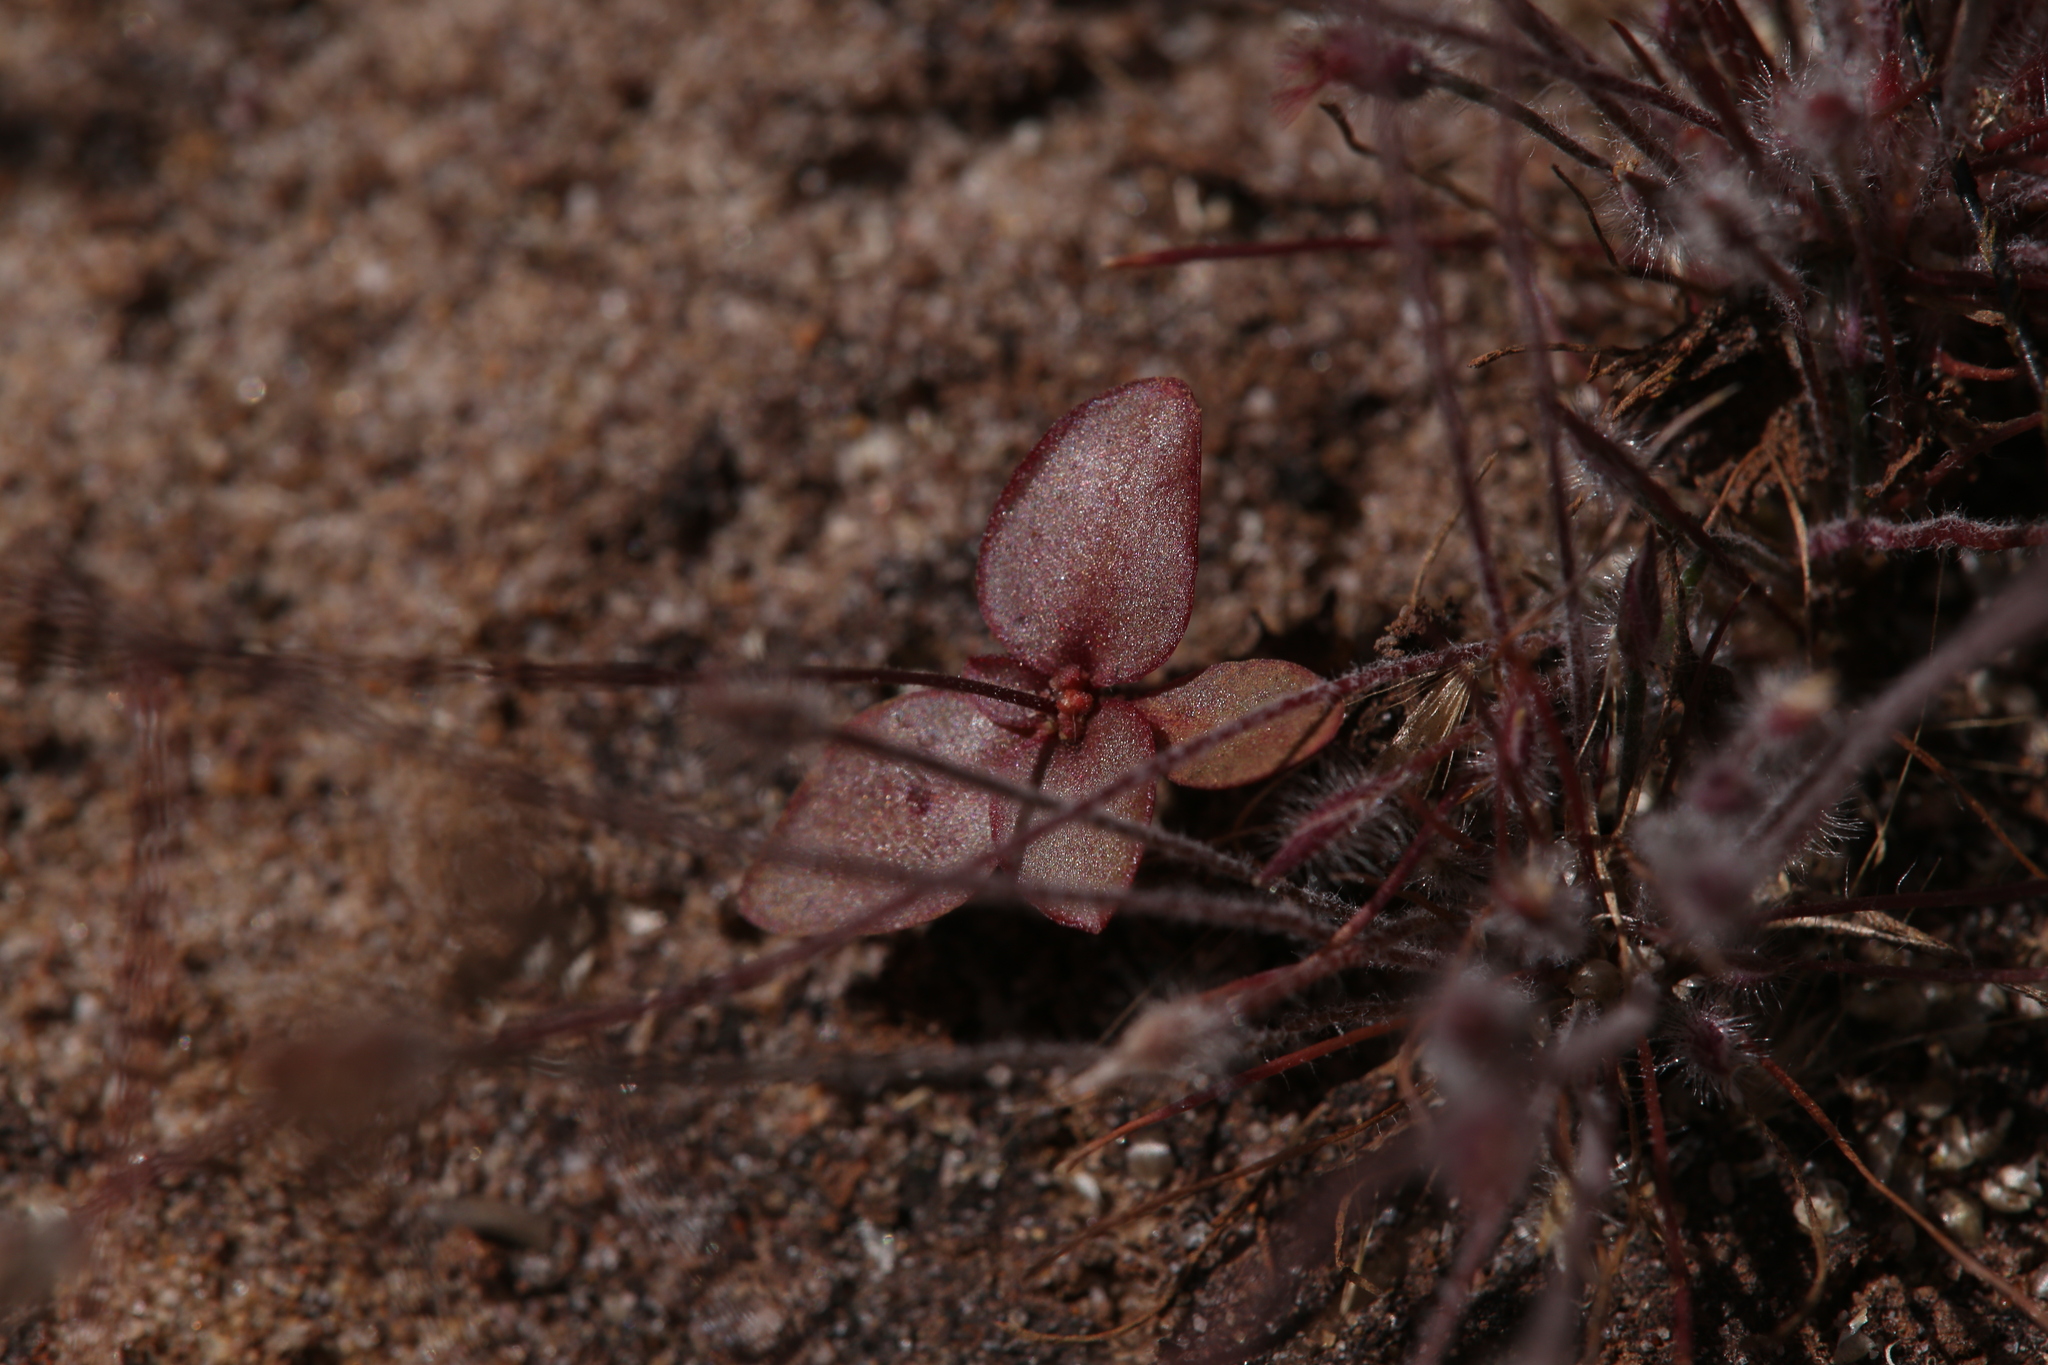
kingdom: Plantae
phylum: Tracheophyta
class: Magnoliopsida
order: Asterales
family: Stylidiaceae
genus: Stylidium
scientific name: Stylidium schizanthum
